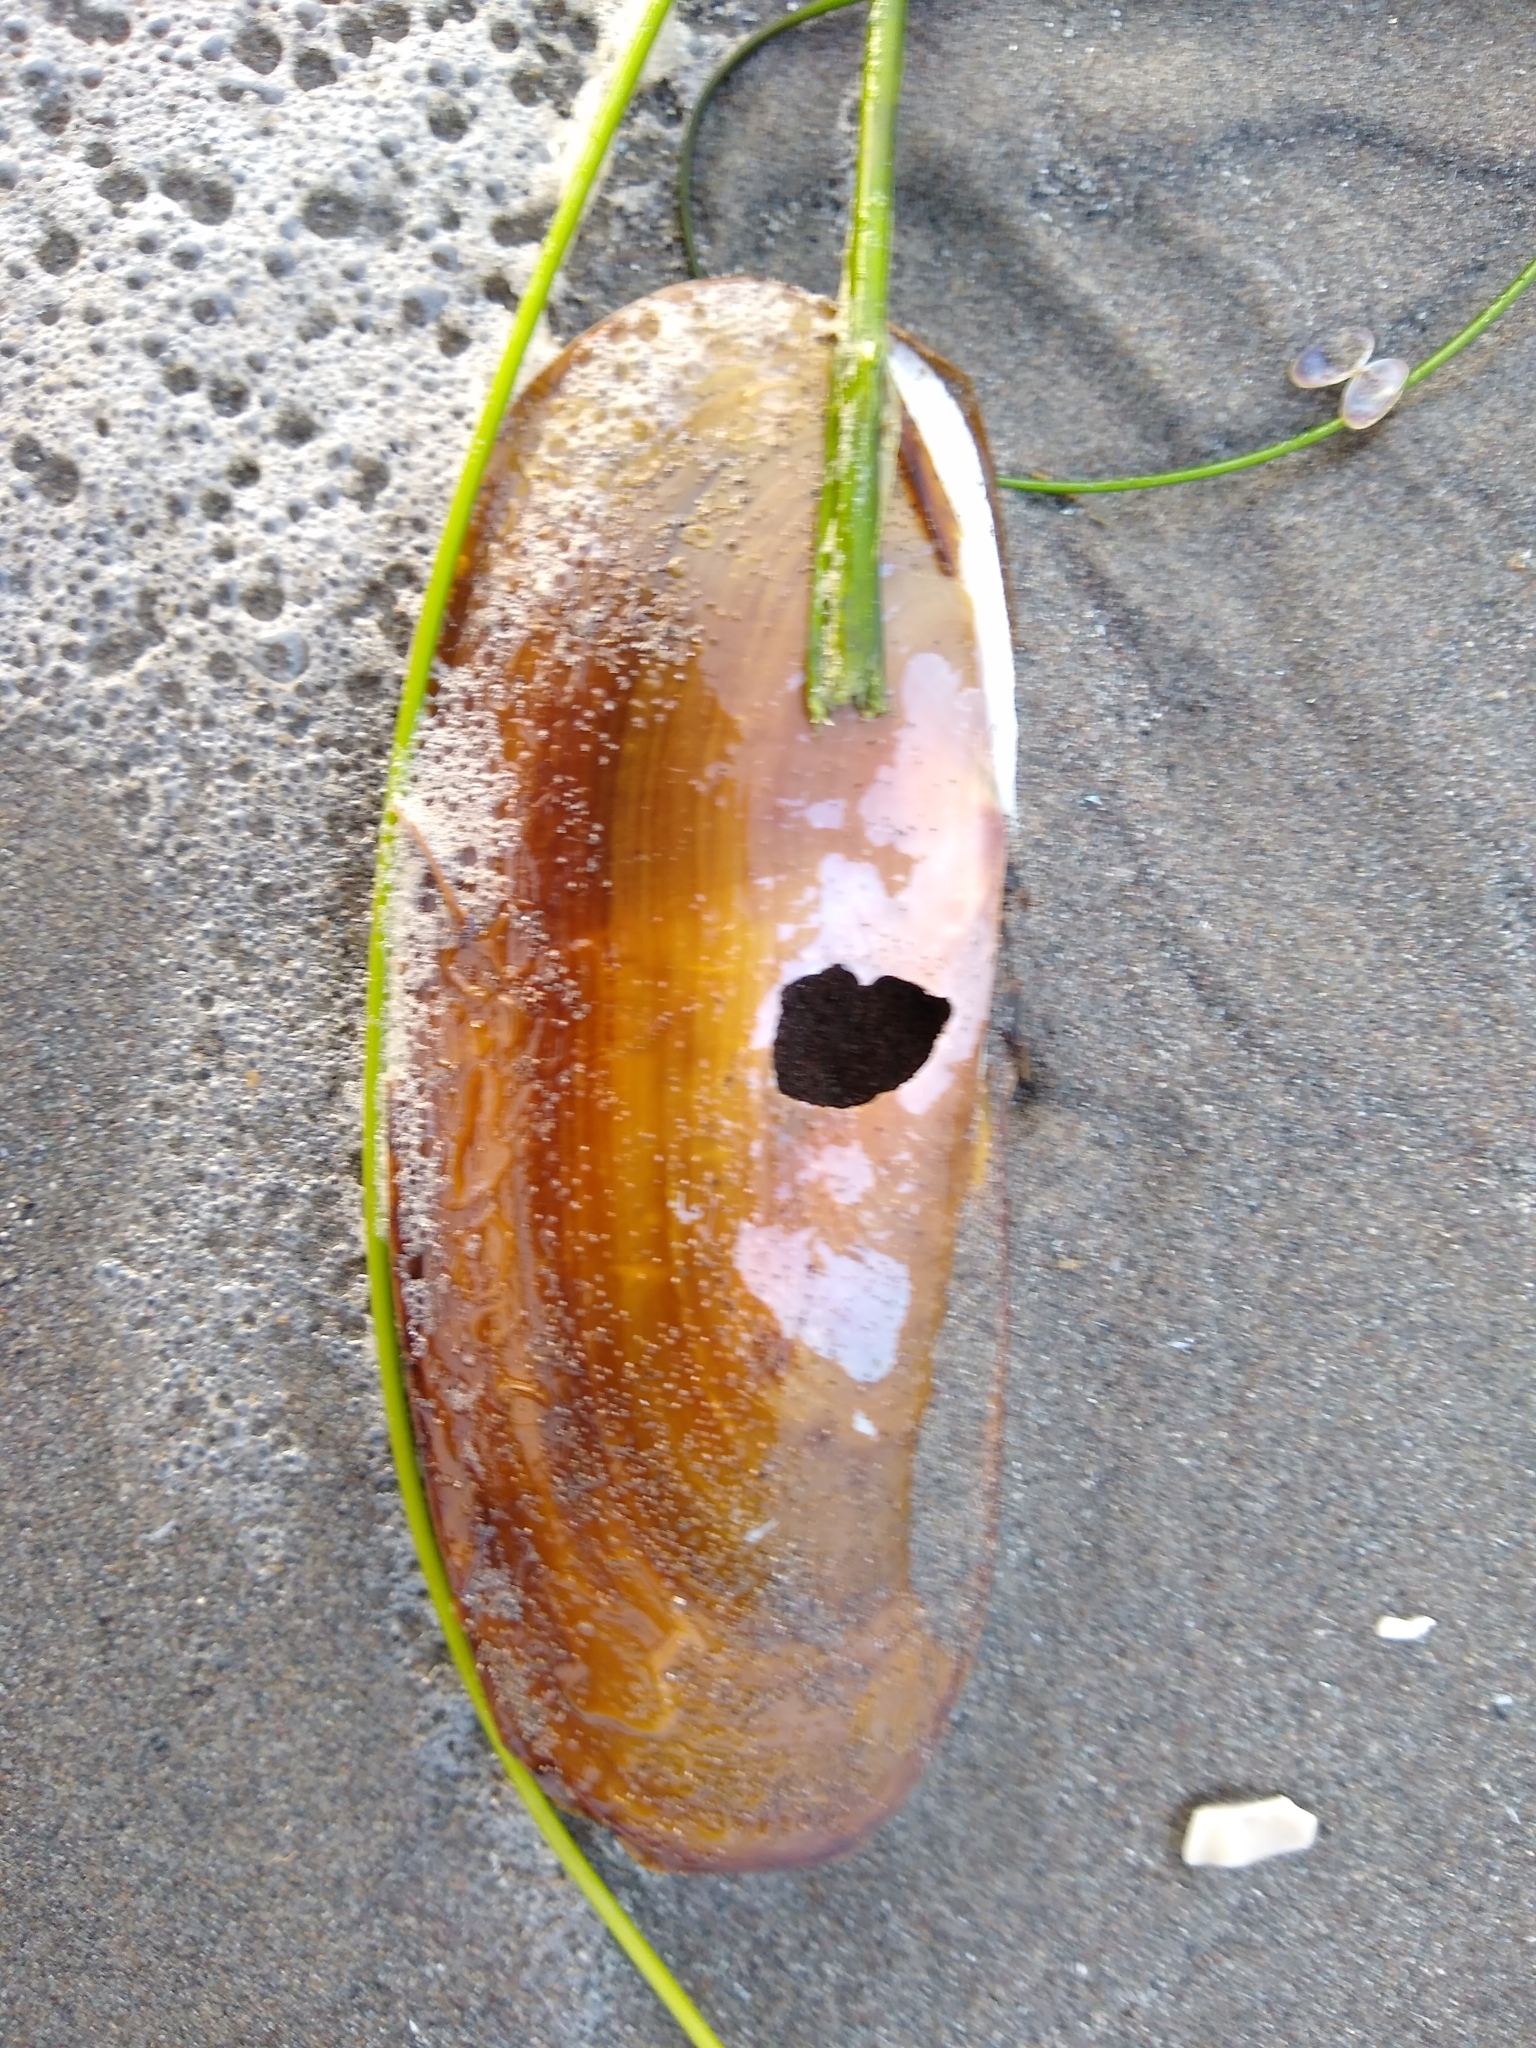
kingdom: Animalia
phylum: Mollusca
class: Bivalvia
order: Adapedonta
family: Pharidae
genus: Siliqua
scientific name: Siliqua patula
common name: Pacific razor clam
